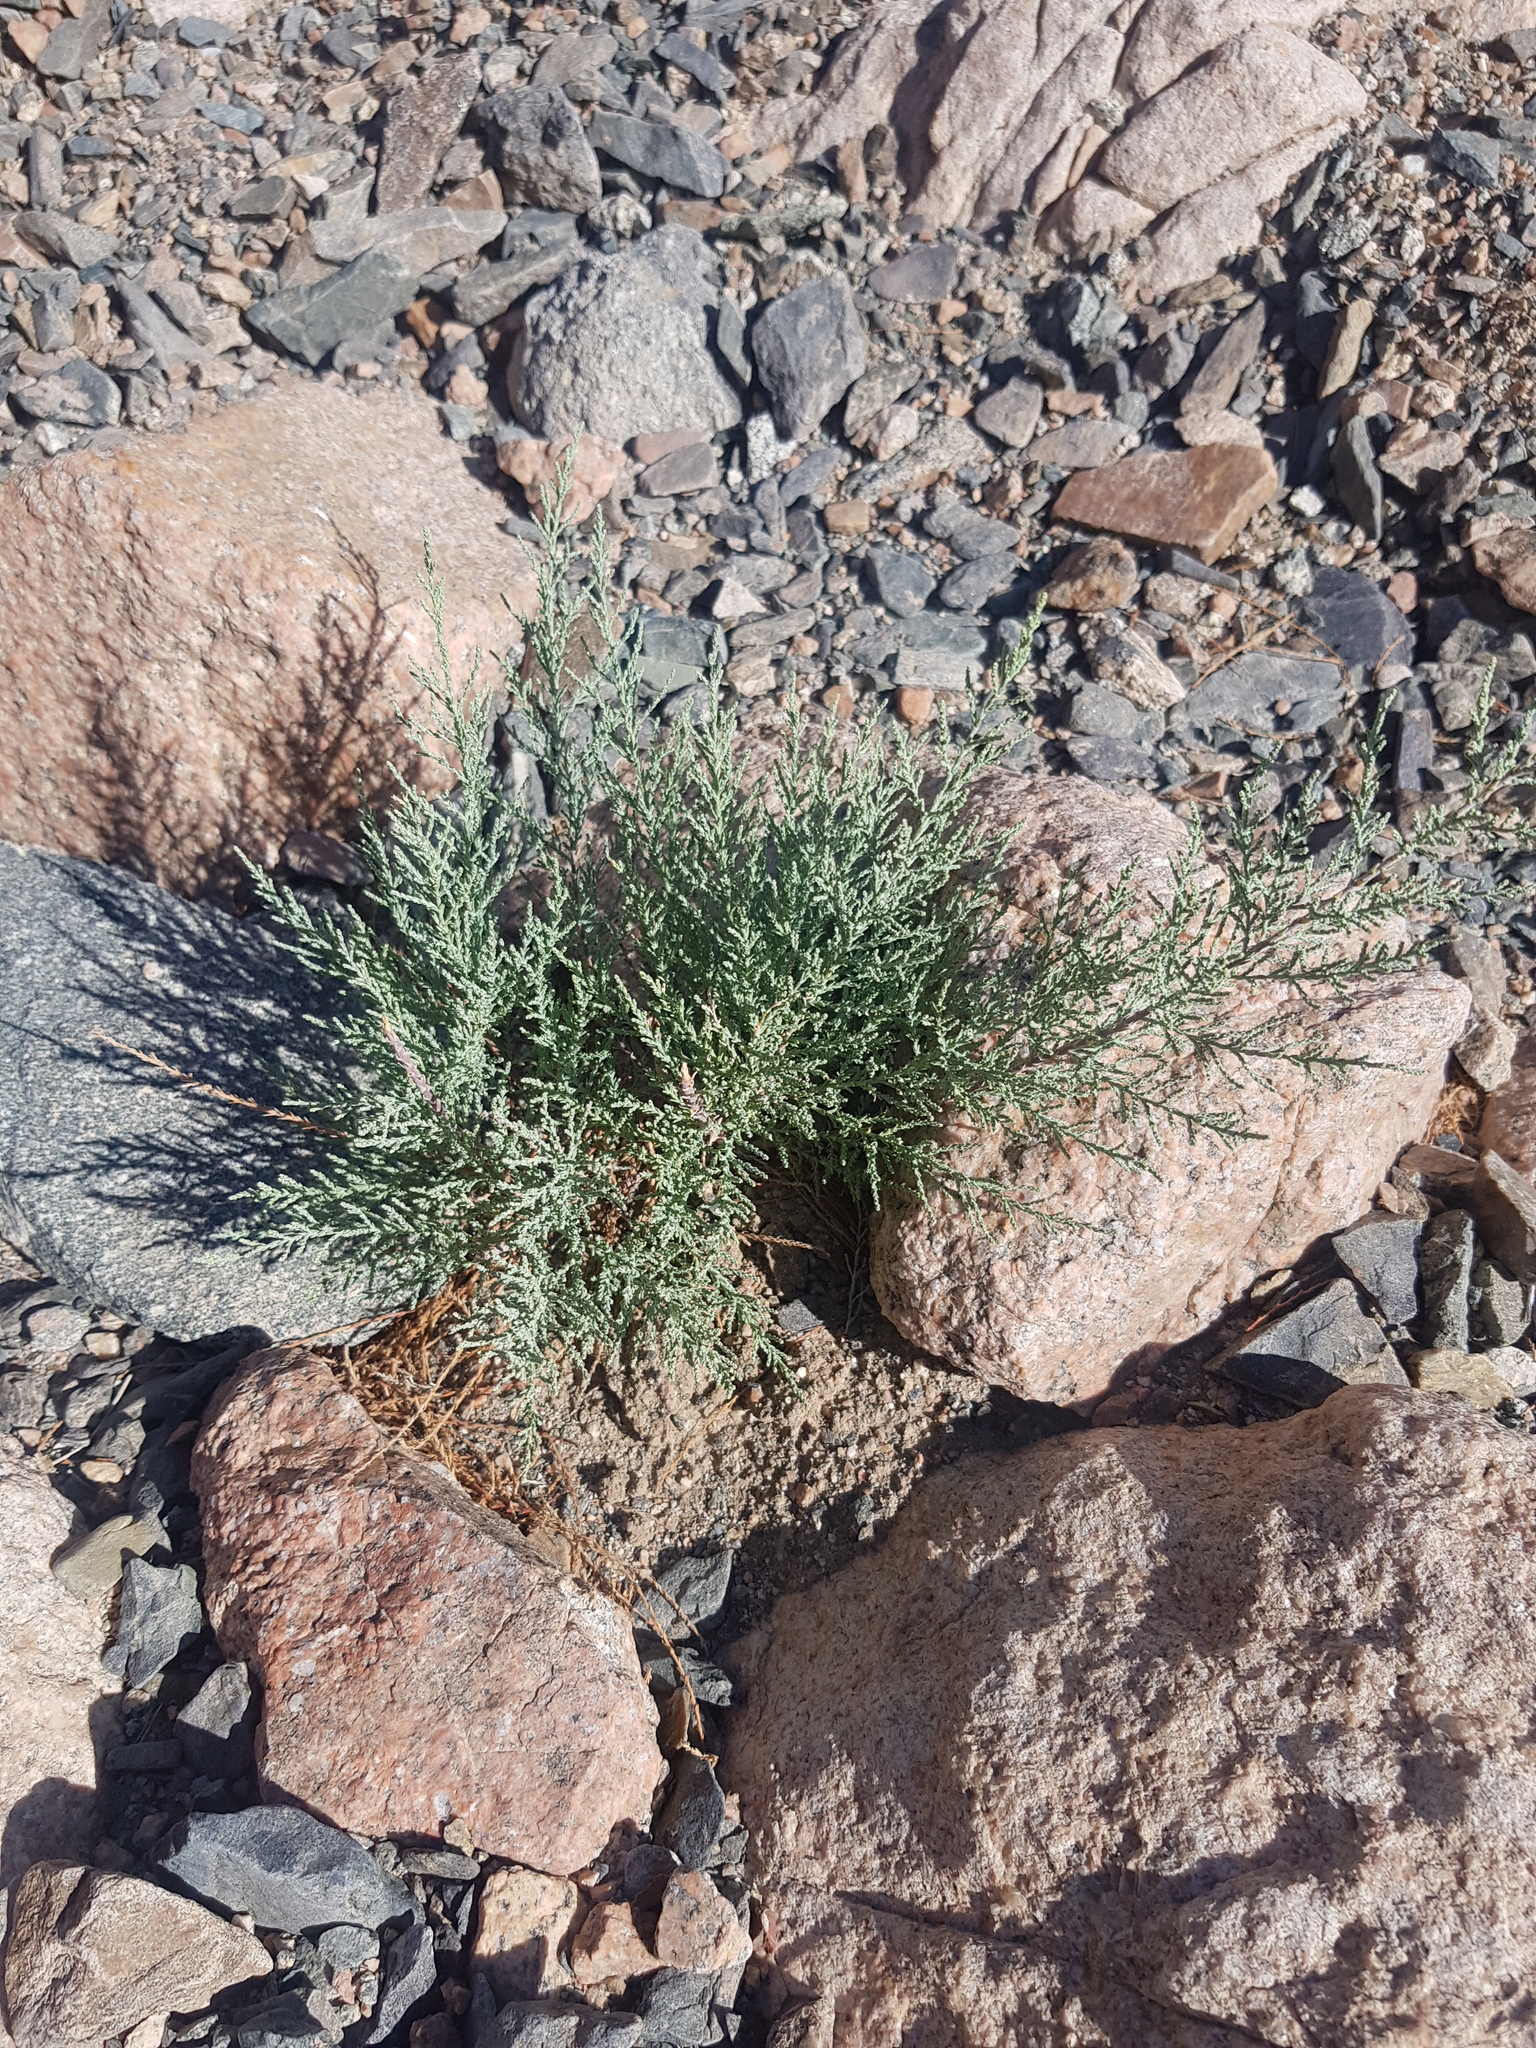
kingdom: Plantae
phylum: Tracheophyta
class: Magnoliopsida
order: Caryophyllales
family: Tamaricaceae
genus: Tamarix
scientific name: Tamarix leptostachya
